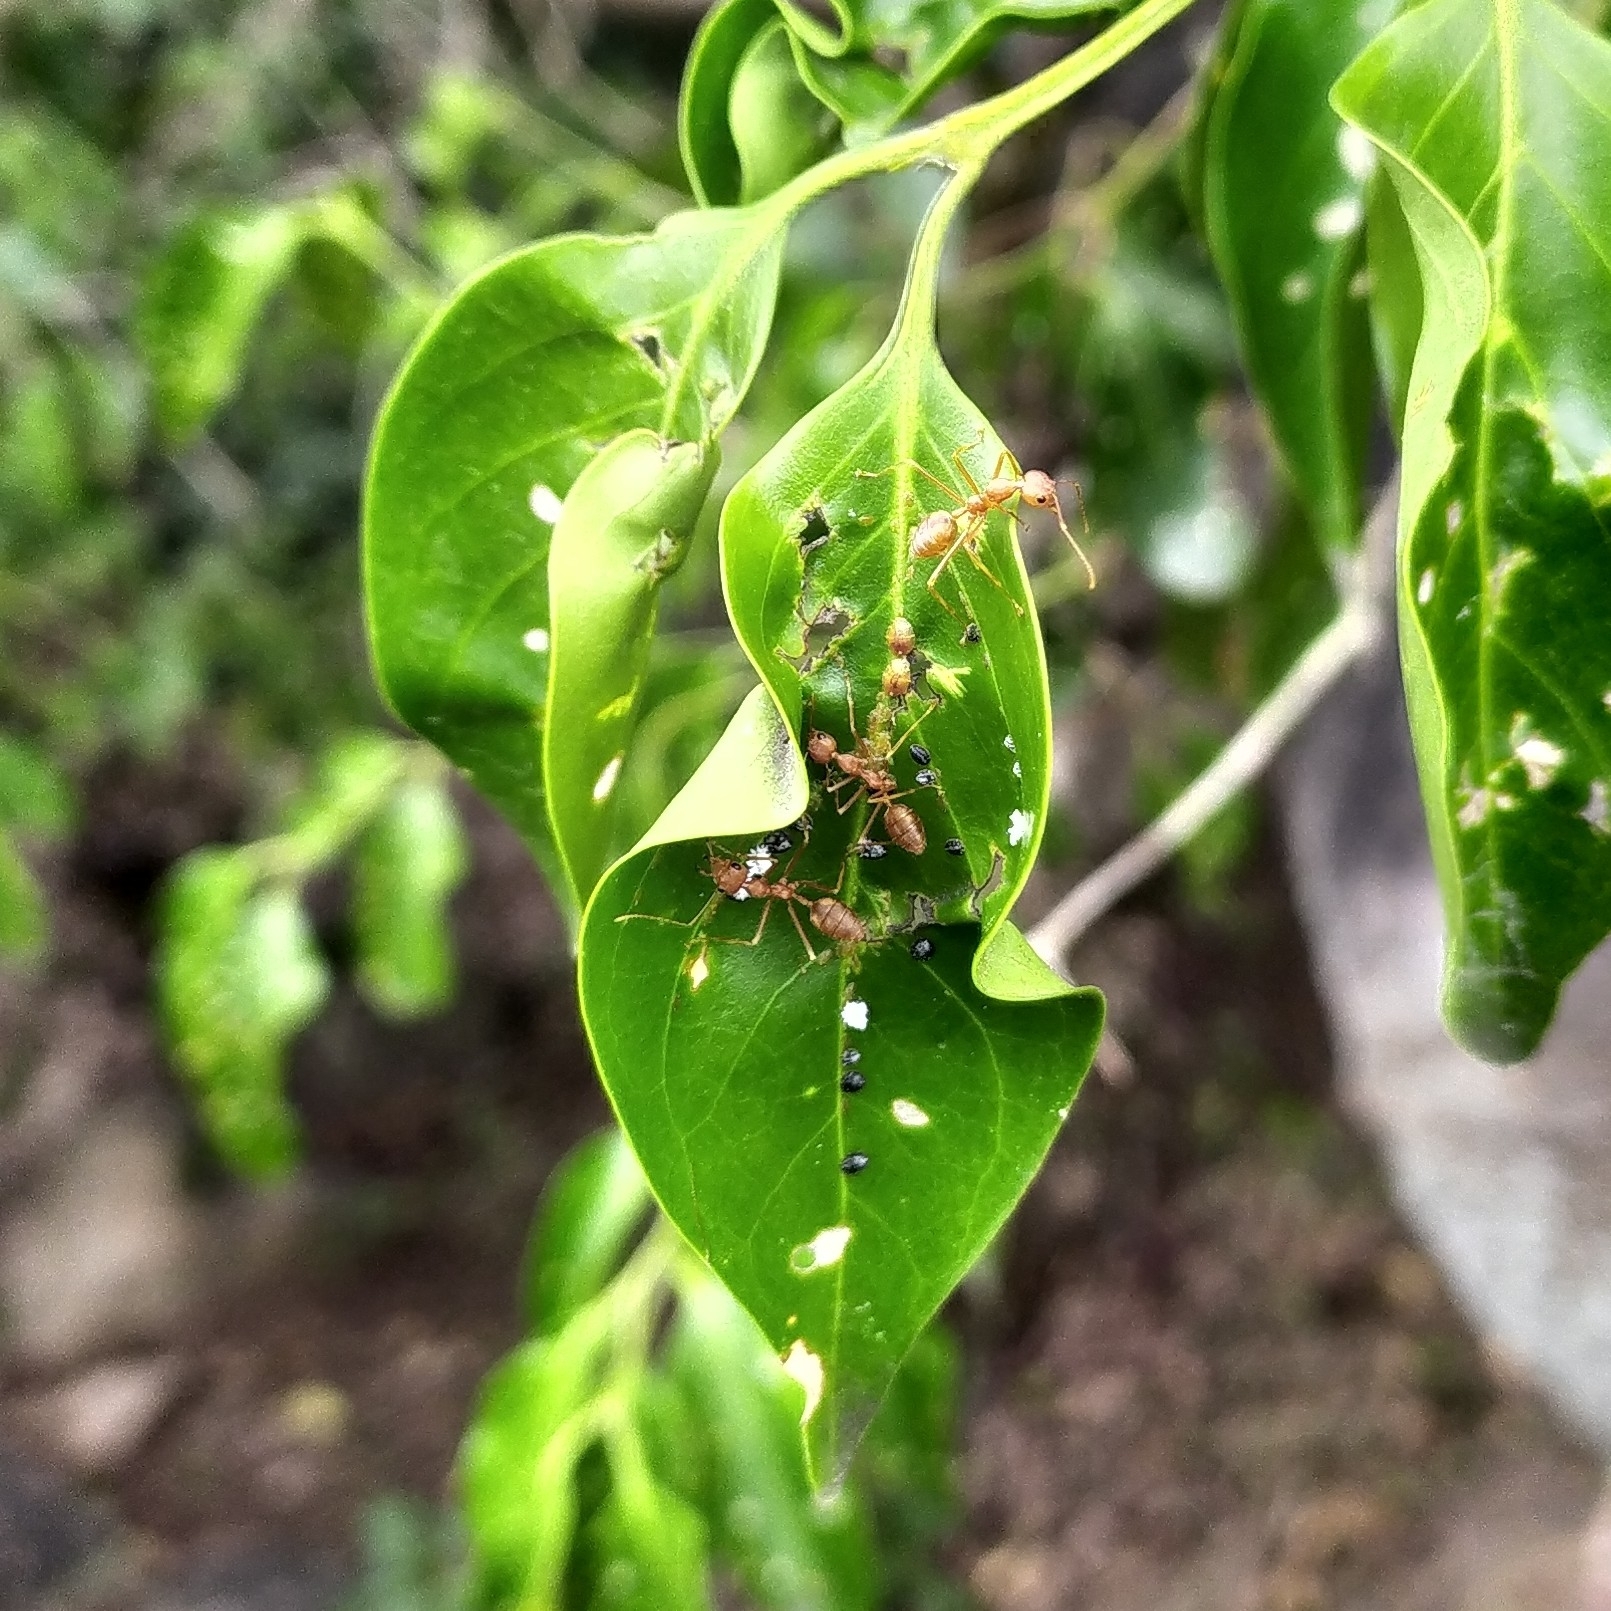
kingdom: Animalia
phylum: Arthropoda
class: Insecta
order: Hymenoptera
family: Formicidae
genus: Oecophylla
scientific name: Oecophylla smaragdina
